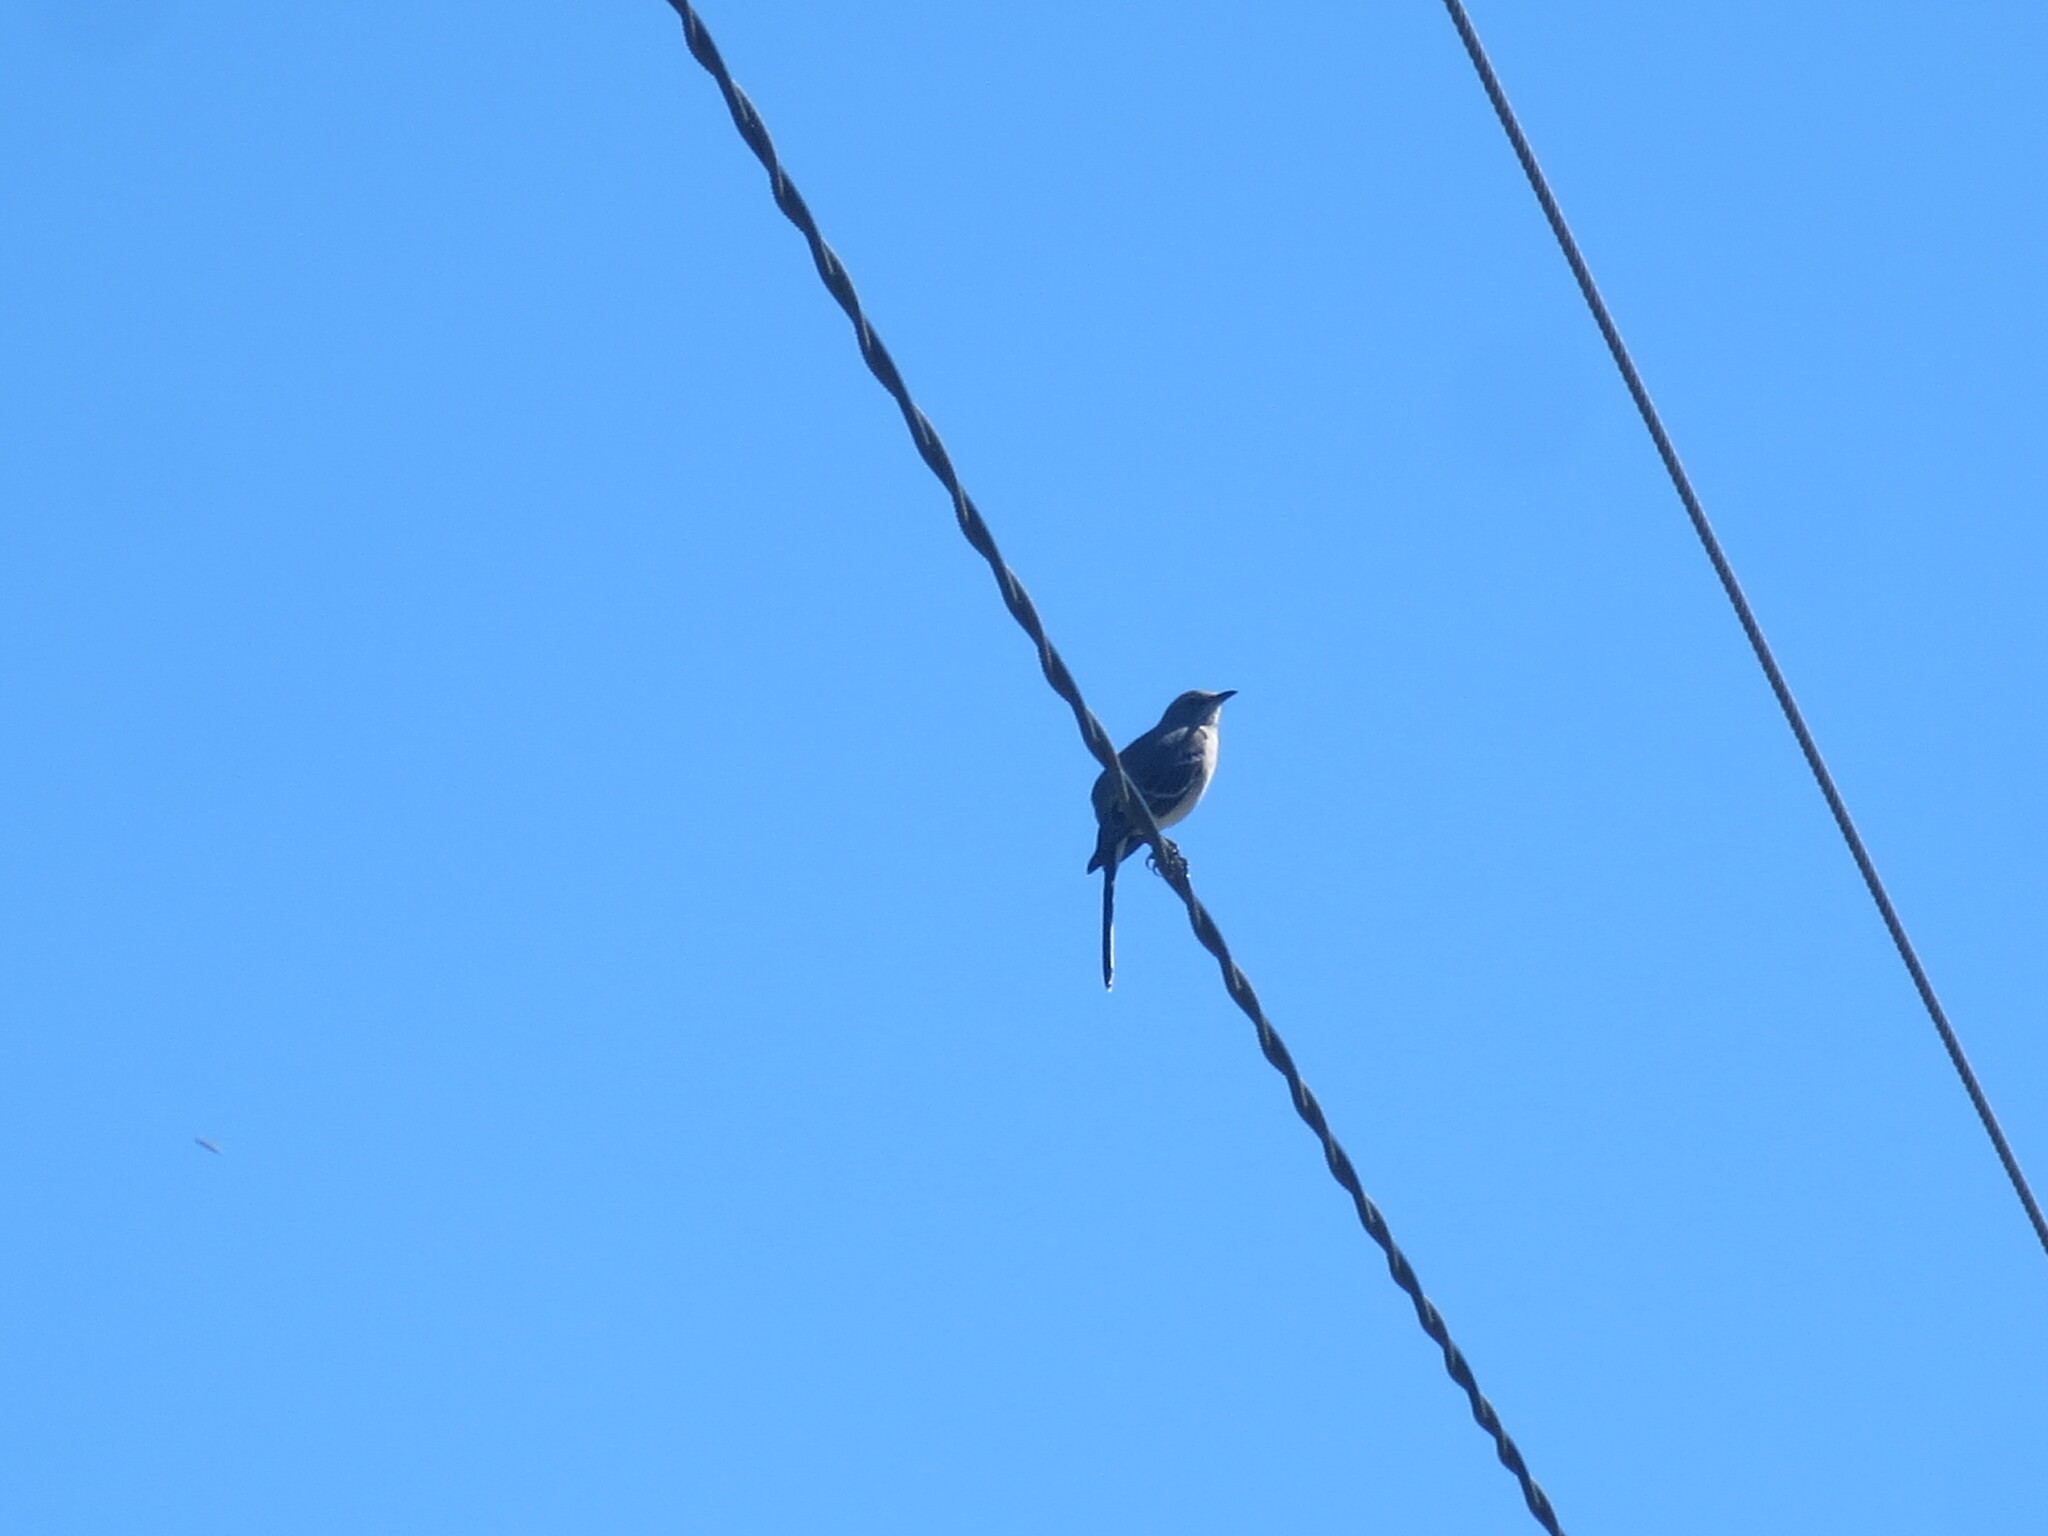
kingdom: Animalia
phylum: Chordata
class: Aves
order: Passeriformes
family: Mimidae
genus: Mimus
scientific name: Mimus polyglottos
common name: Northern mockingbird
